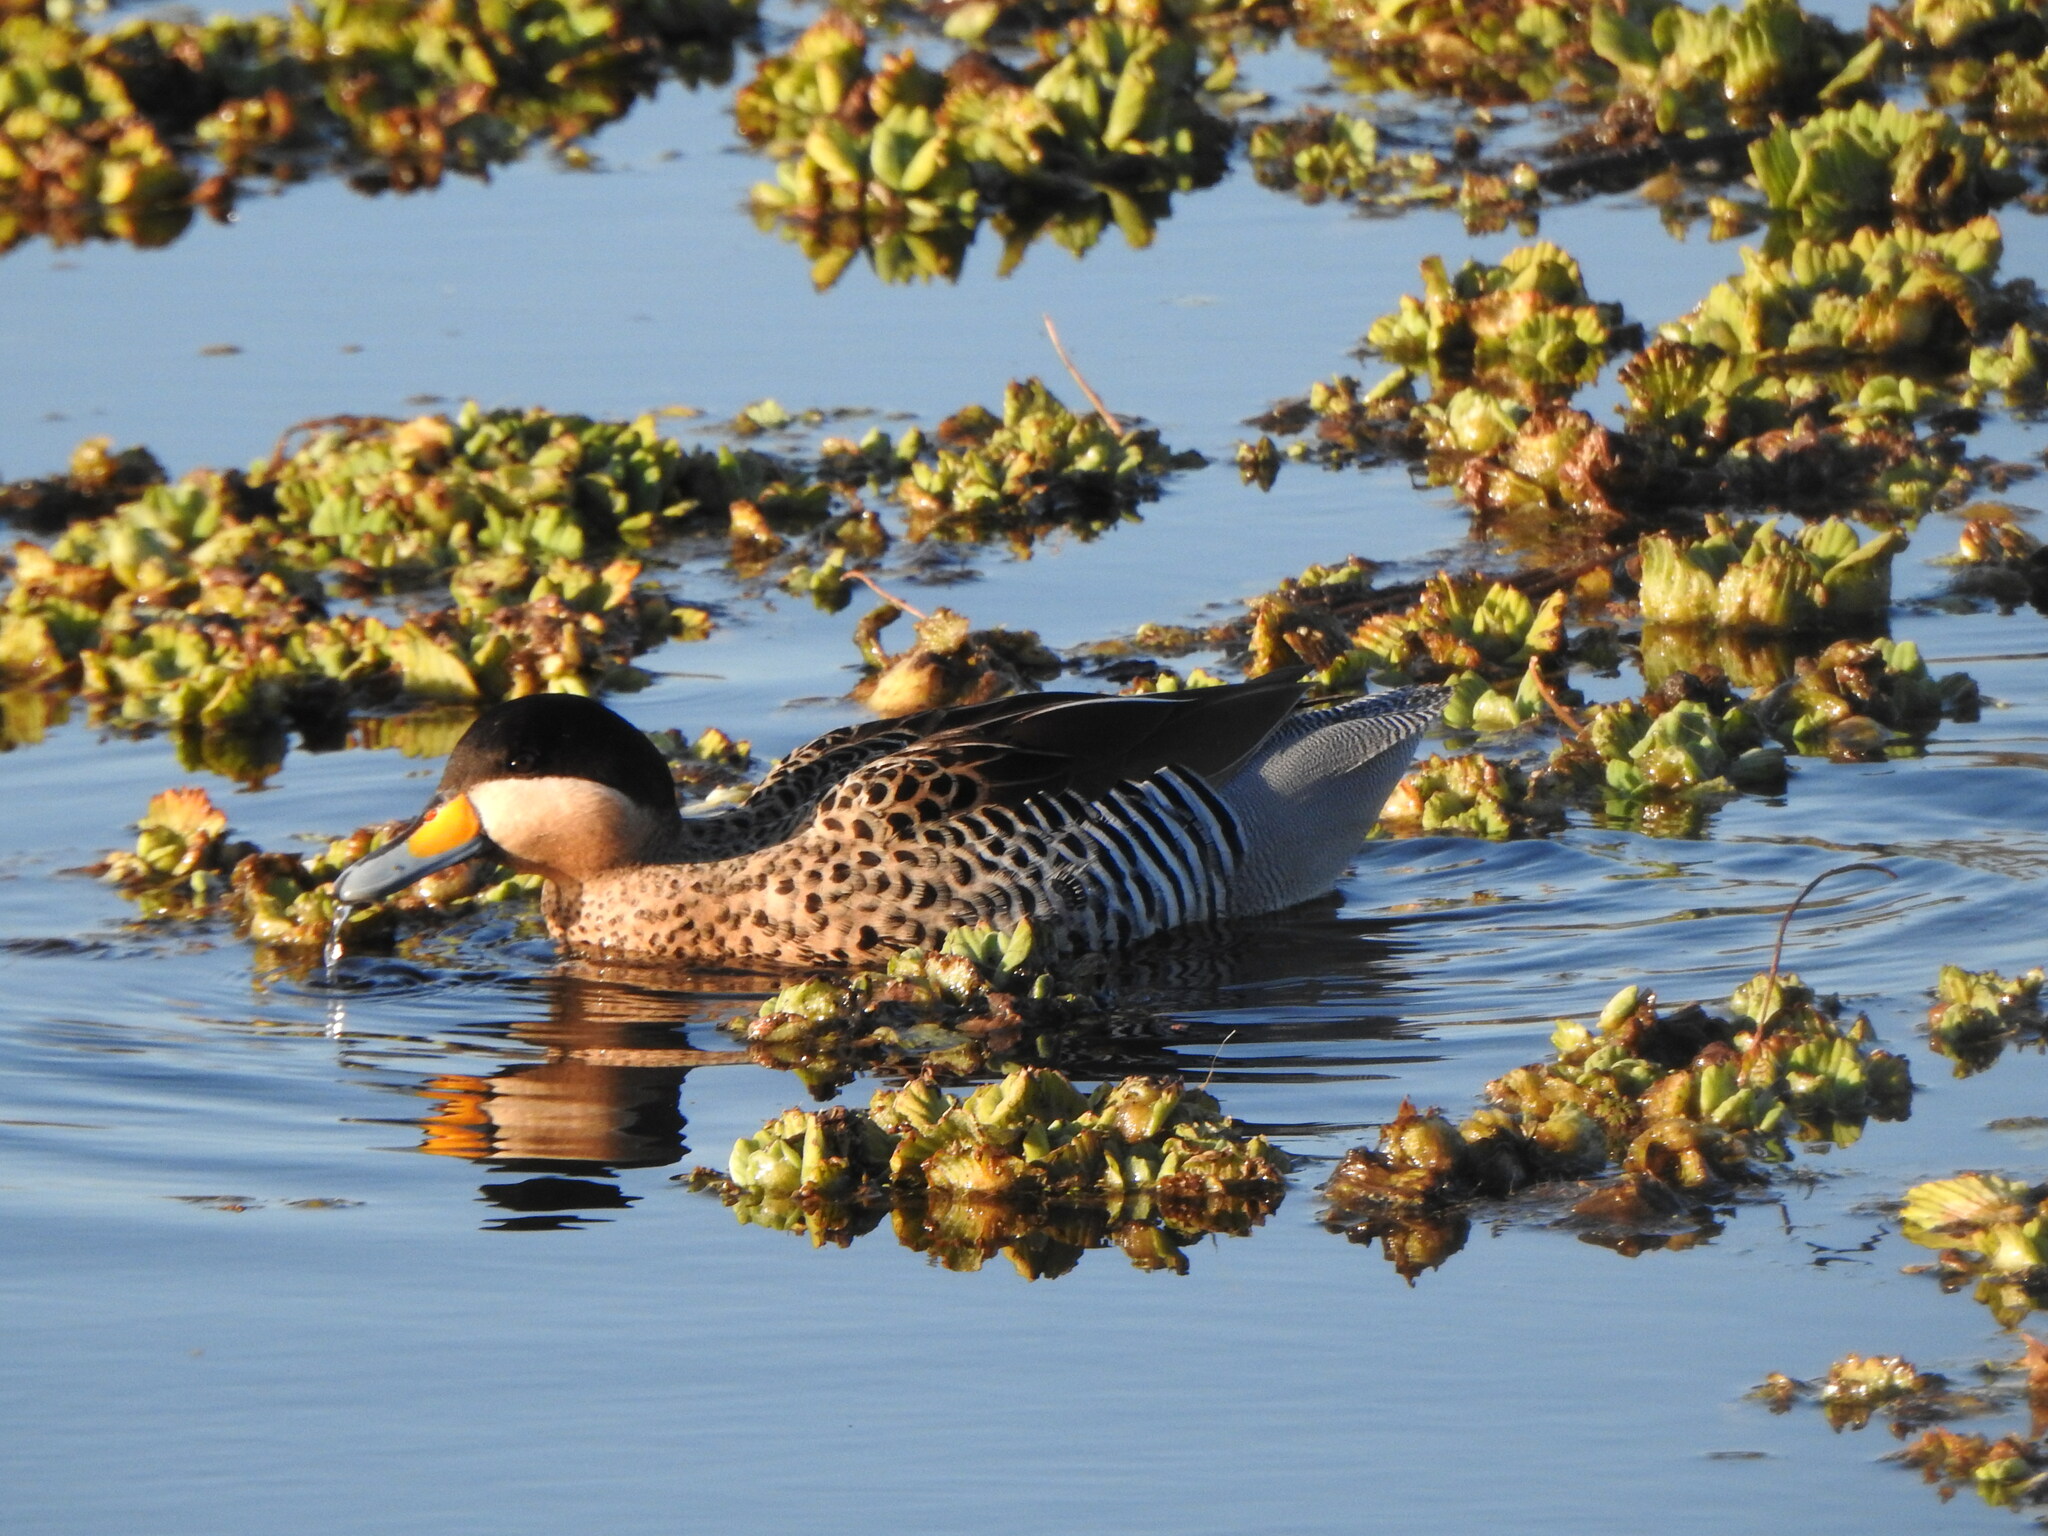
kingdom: Animalia
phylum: Chordata
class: Aves
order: Anseriformes
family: Anatidae
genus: Spatula
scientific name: Spatula versicolor
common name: Silver teal
